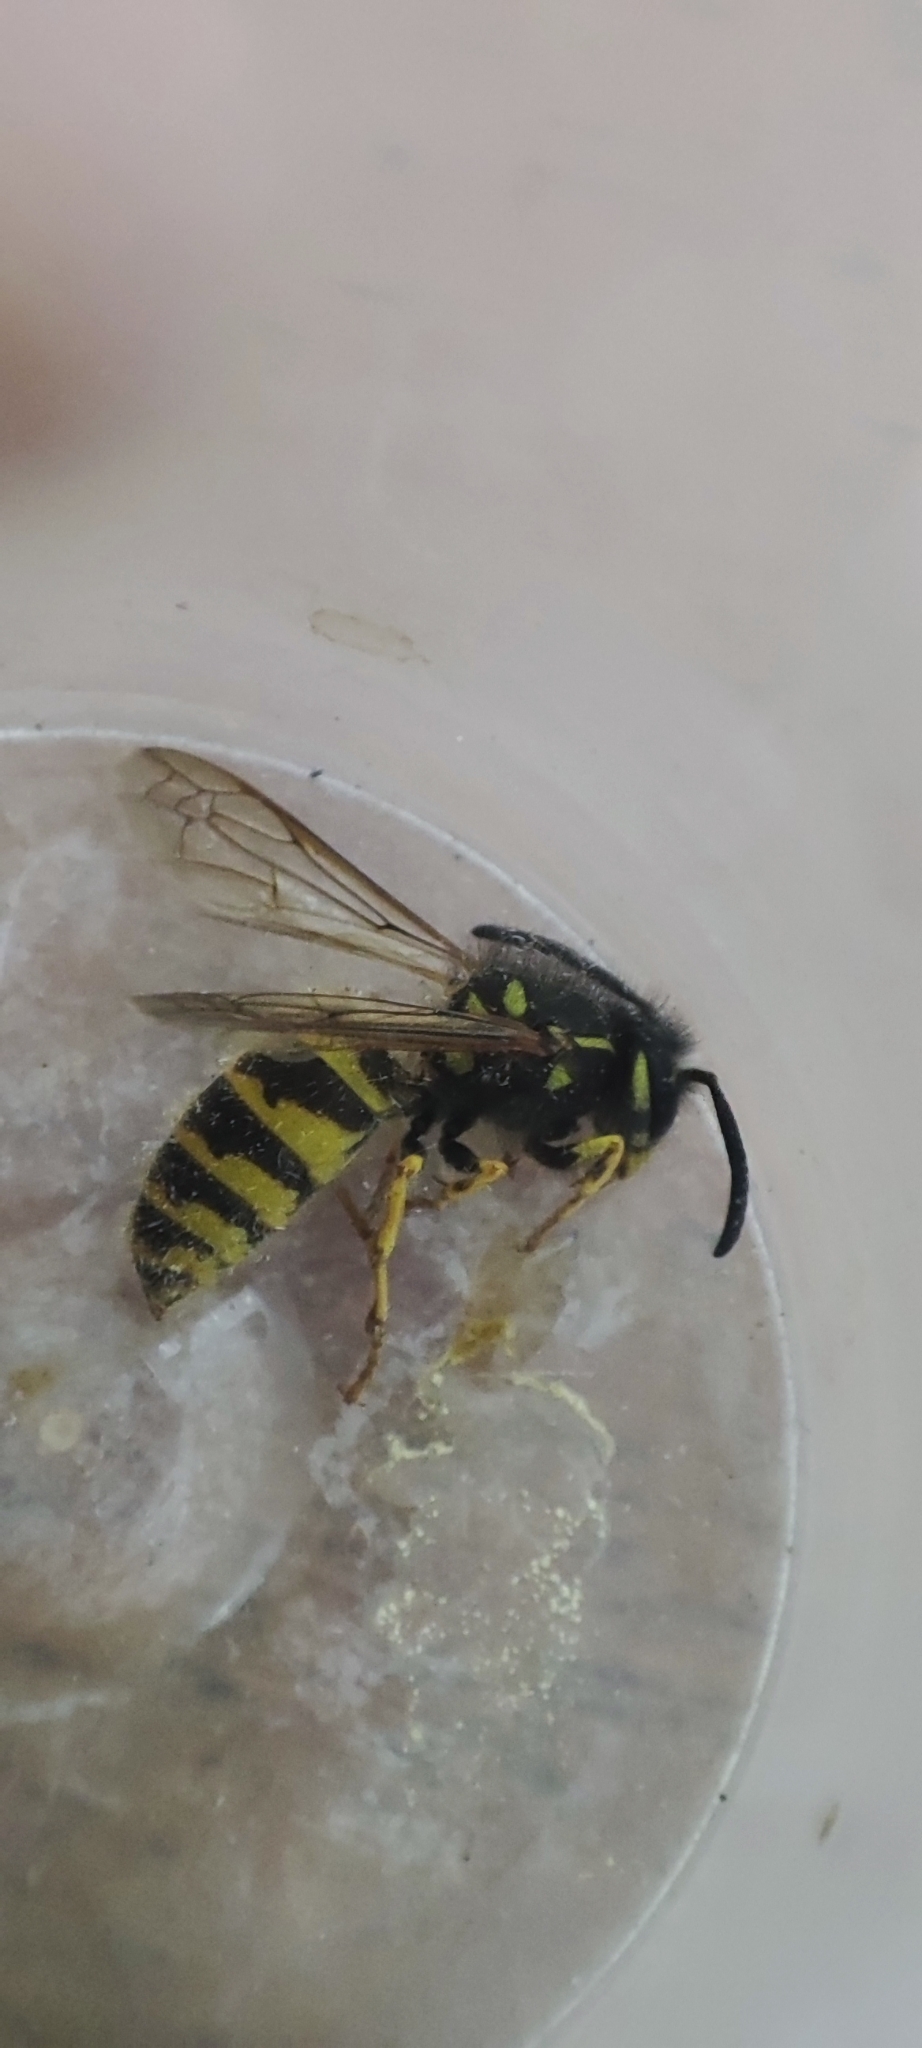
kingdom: Animalia
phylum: Arthropoda
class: Insecta
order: Hymenoptera
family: Vespidae
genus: Vespula
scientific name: Vespula vulgaris
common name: Common wasp
